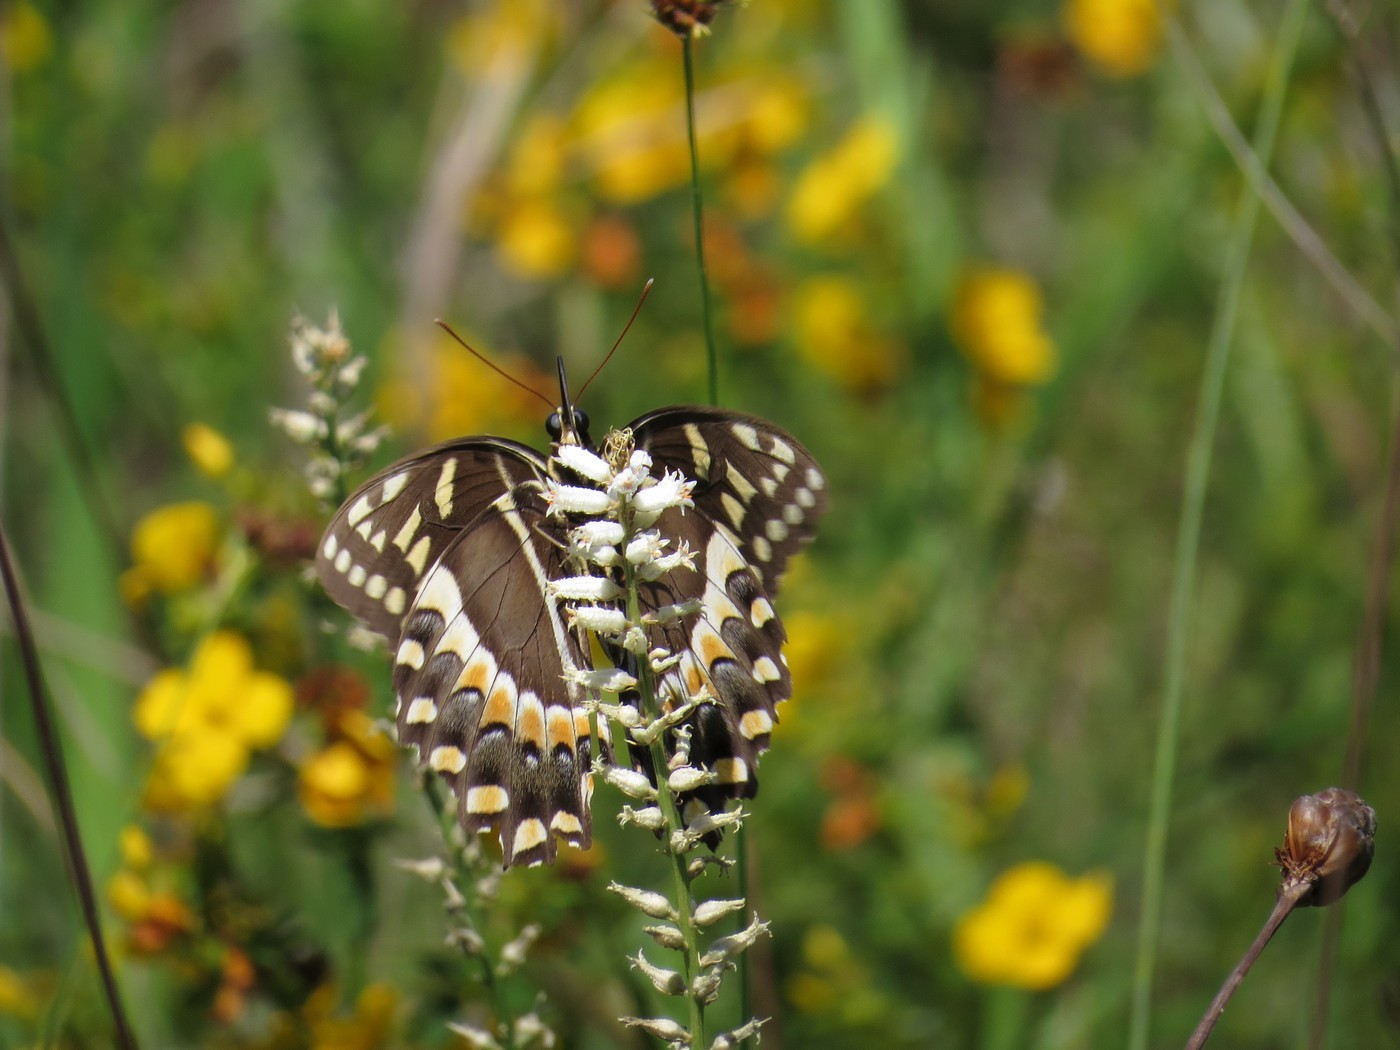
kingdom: Animalia
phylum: Arthropoda
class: Insecta
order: Lepidoptera
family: Papilionidae
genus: Papilio
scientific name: Papilio palamedes
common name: Palamedes swallowtail
